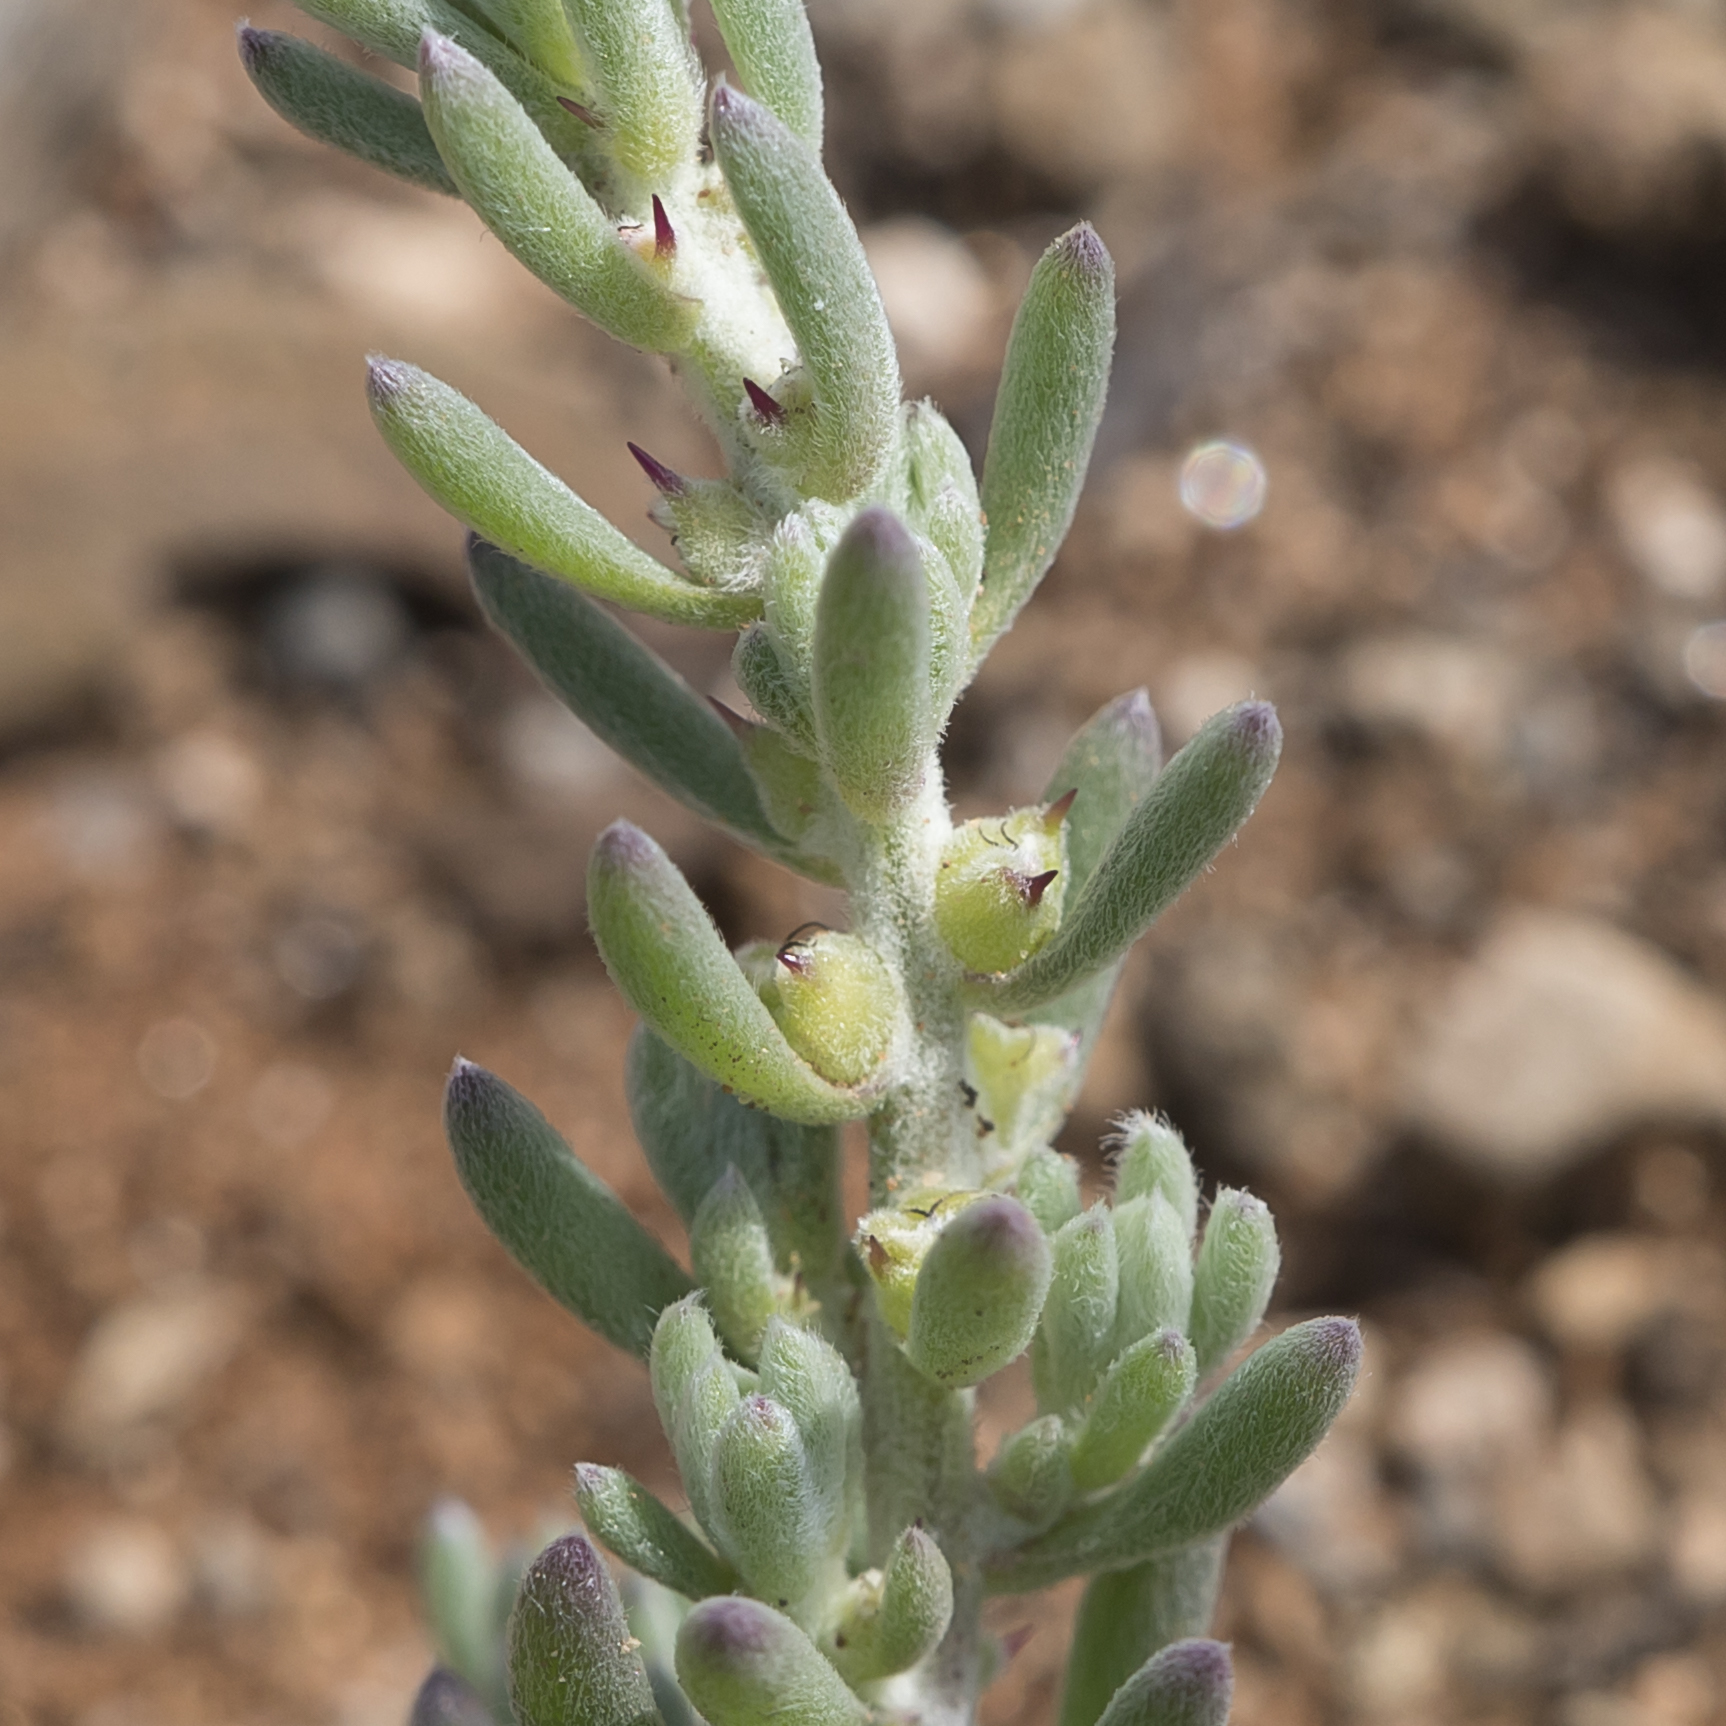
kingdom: Plantae
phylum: Tracheophyta
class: Magnoliopsida
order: Caryophyllales
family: Amaranthaceae
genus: Sclerolaena
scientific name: Sclerolaena diacantha
